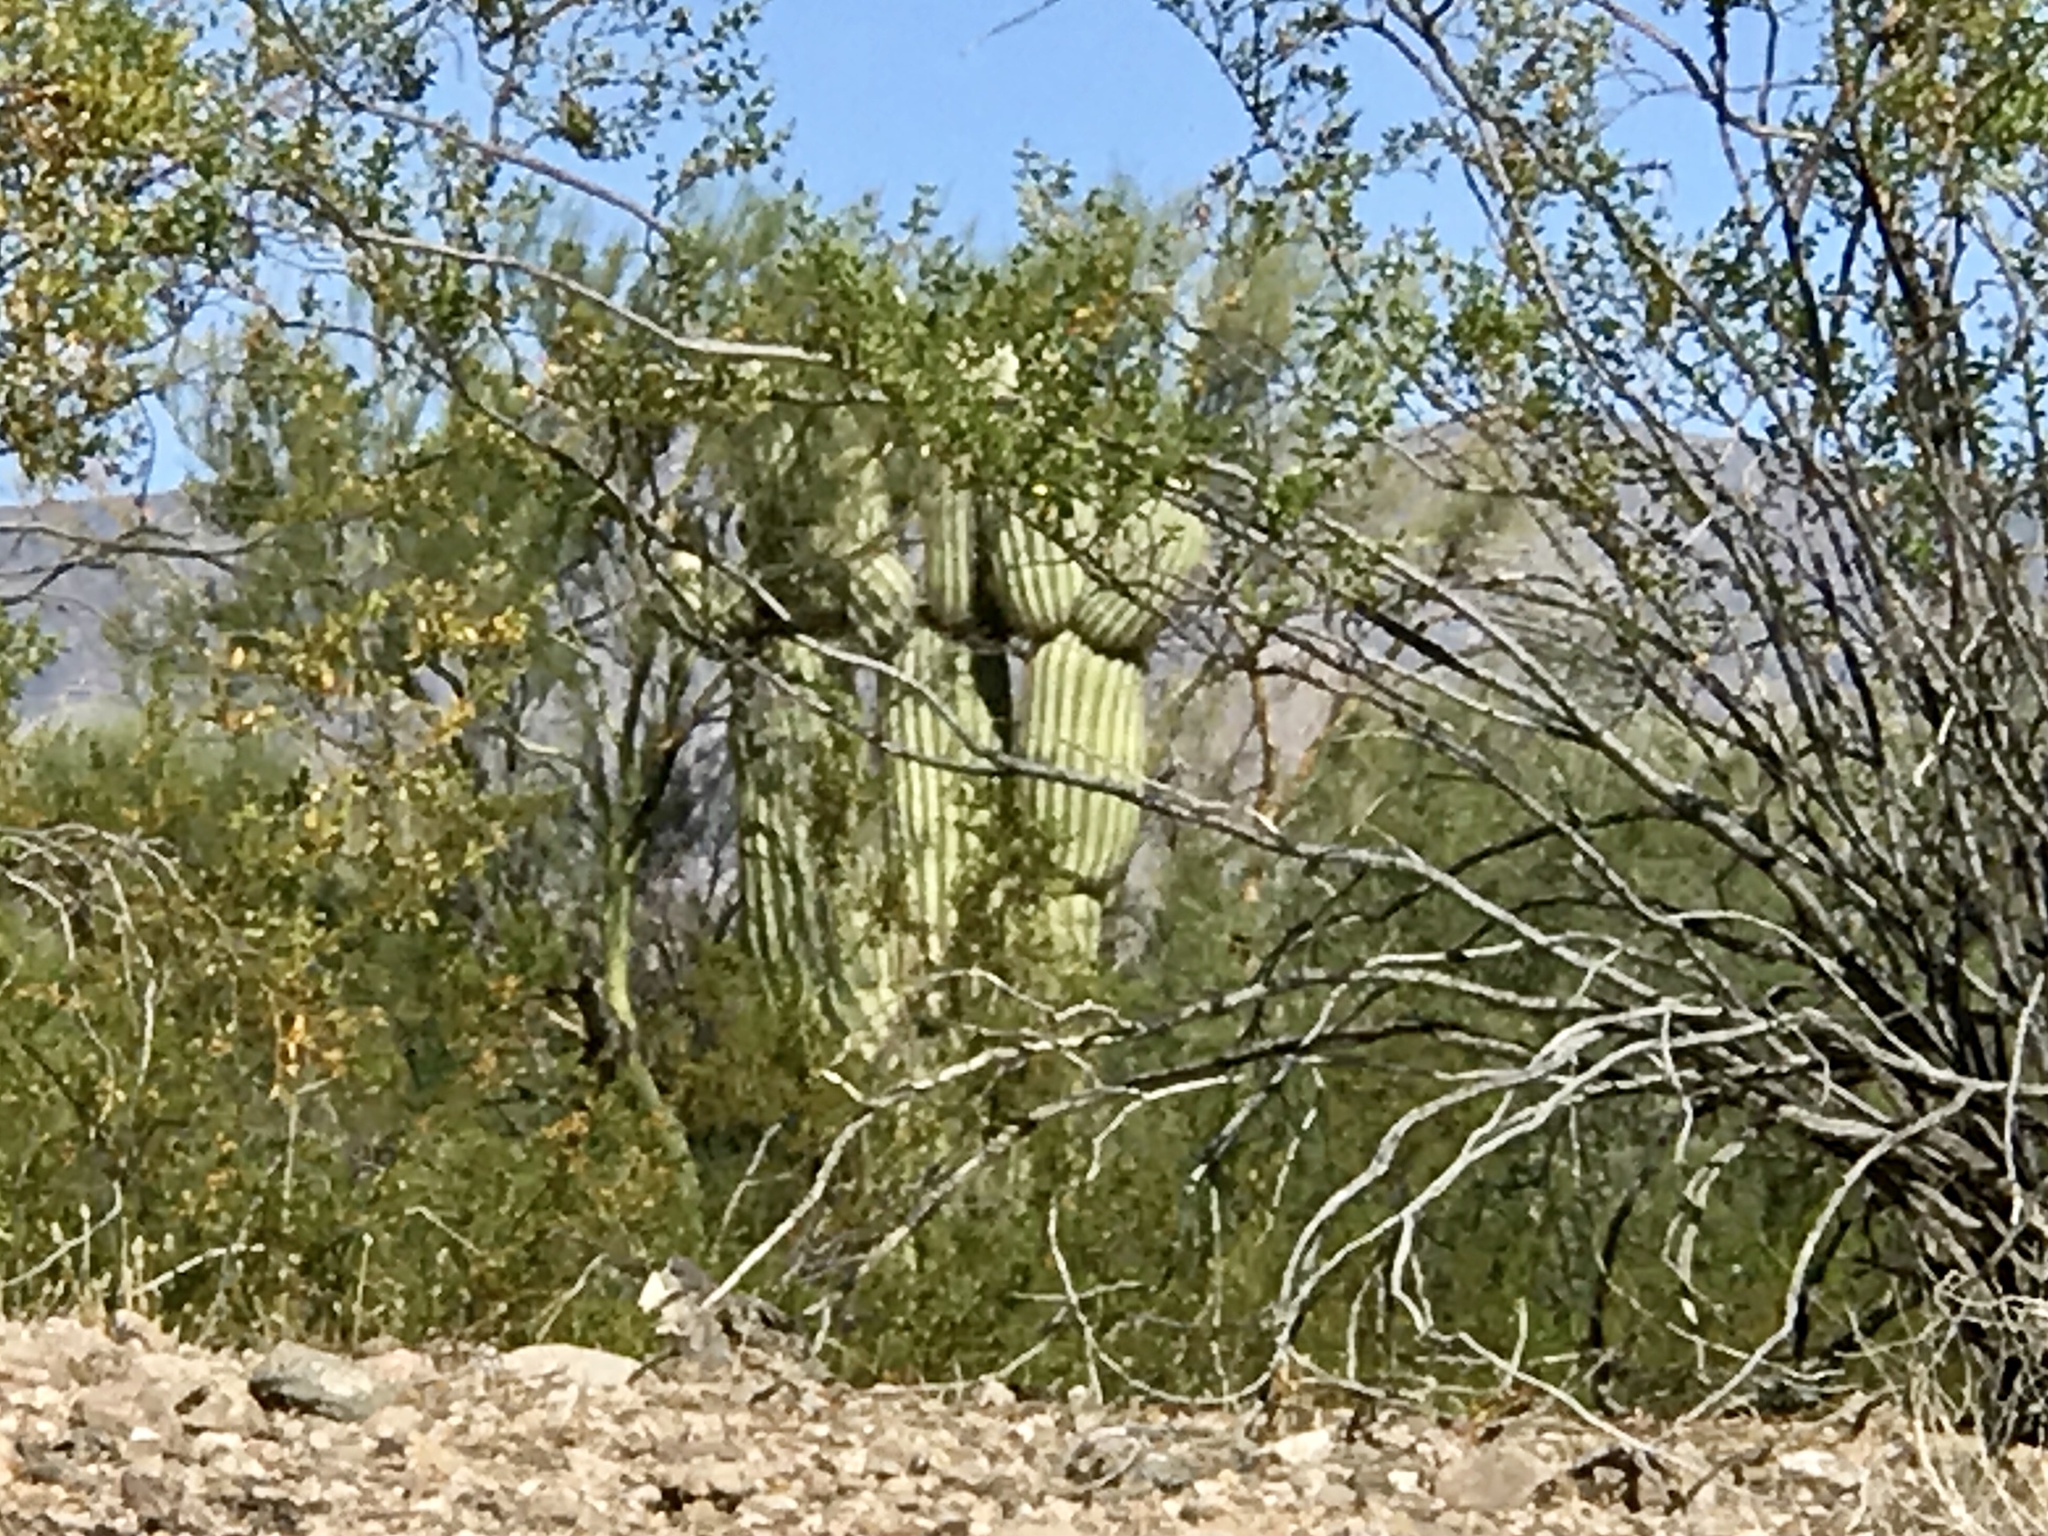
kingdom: Plantae
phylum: Tracheophyta
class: Magnoliopsida
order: Caryophyllales
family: Cactaceae
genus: Carnegiea
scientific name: Carnegiea gigantea
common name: Saguaro
